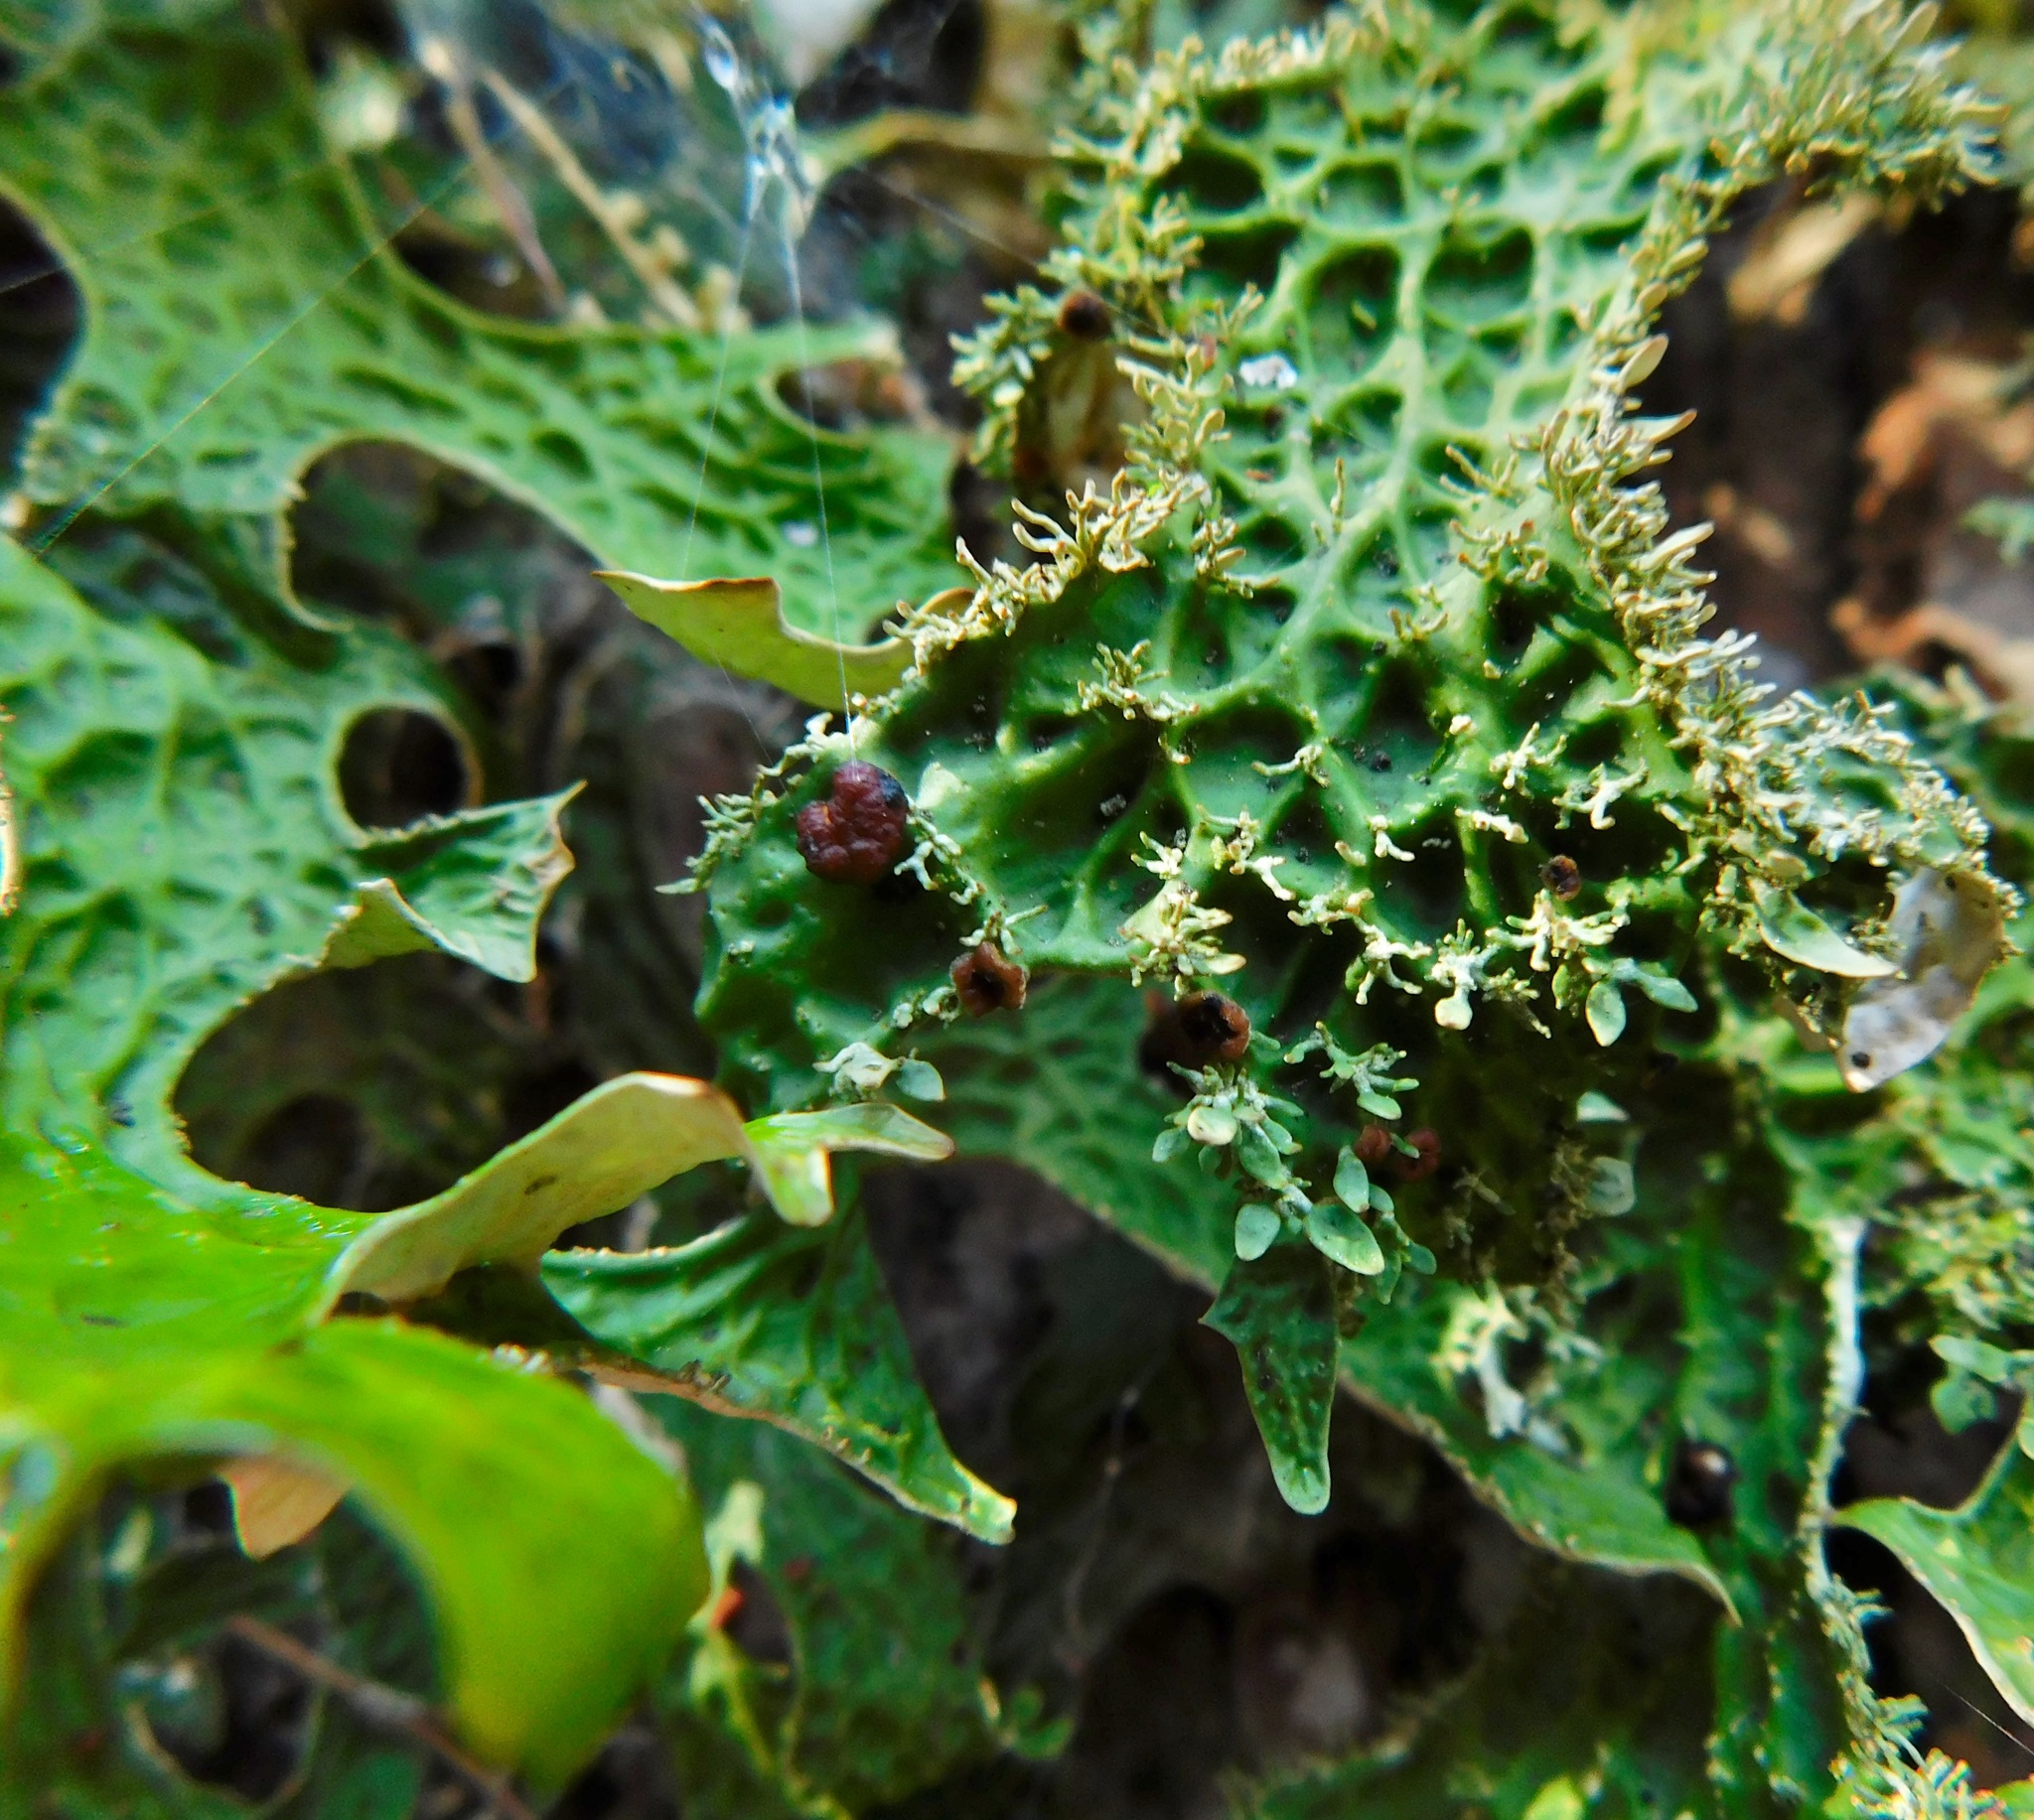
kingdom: Fungi
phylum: Ascomycota
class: Lecanoromycetes
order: Peltigerales
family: Lobariaceae
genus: Lobaria
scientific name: Lobaria pulmonaria
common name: Lungwort
